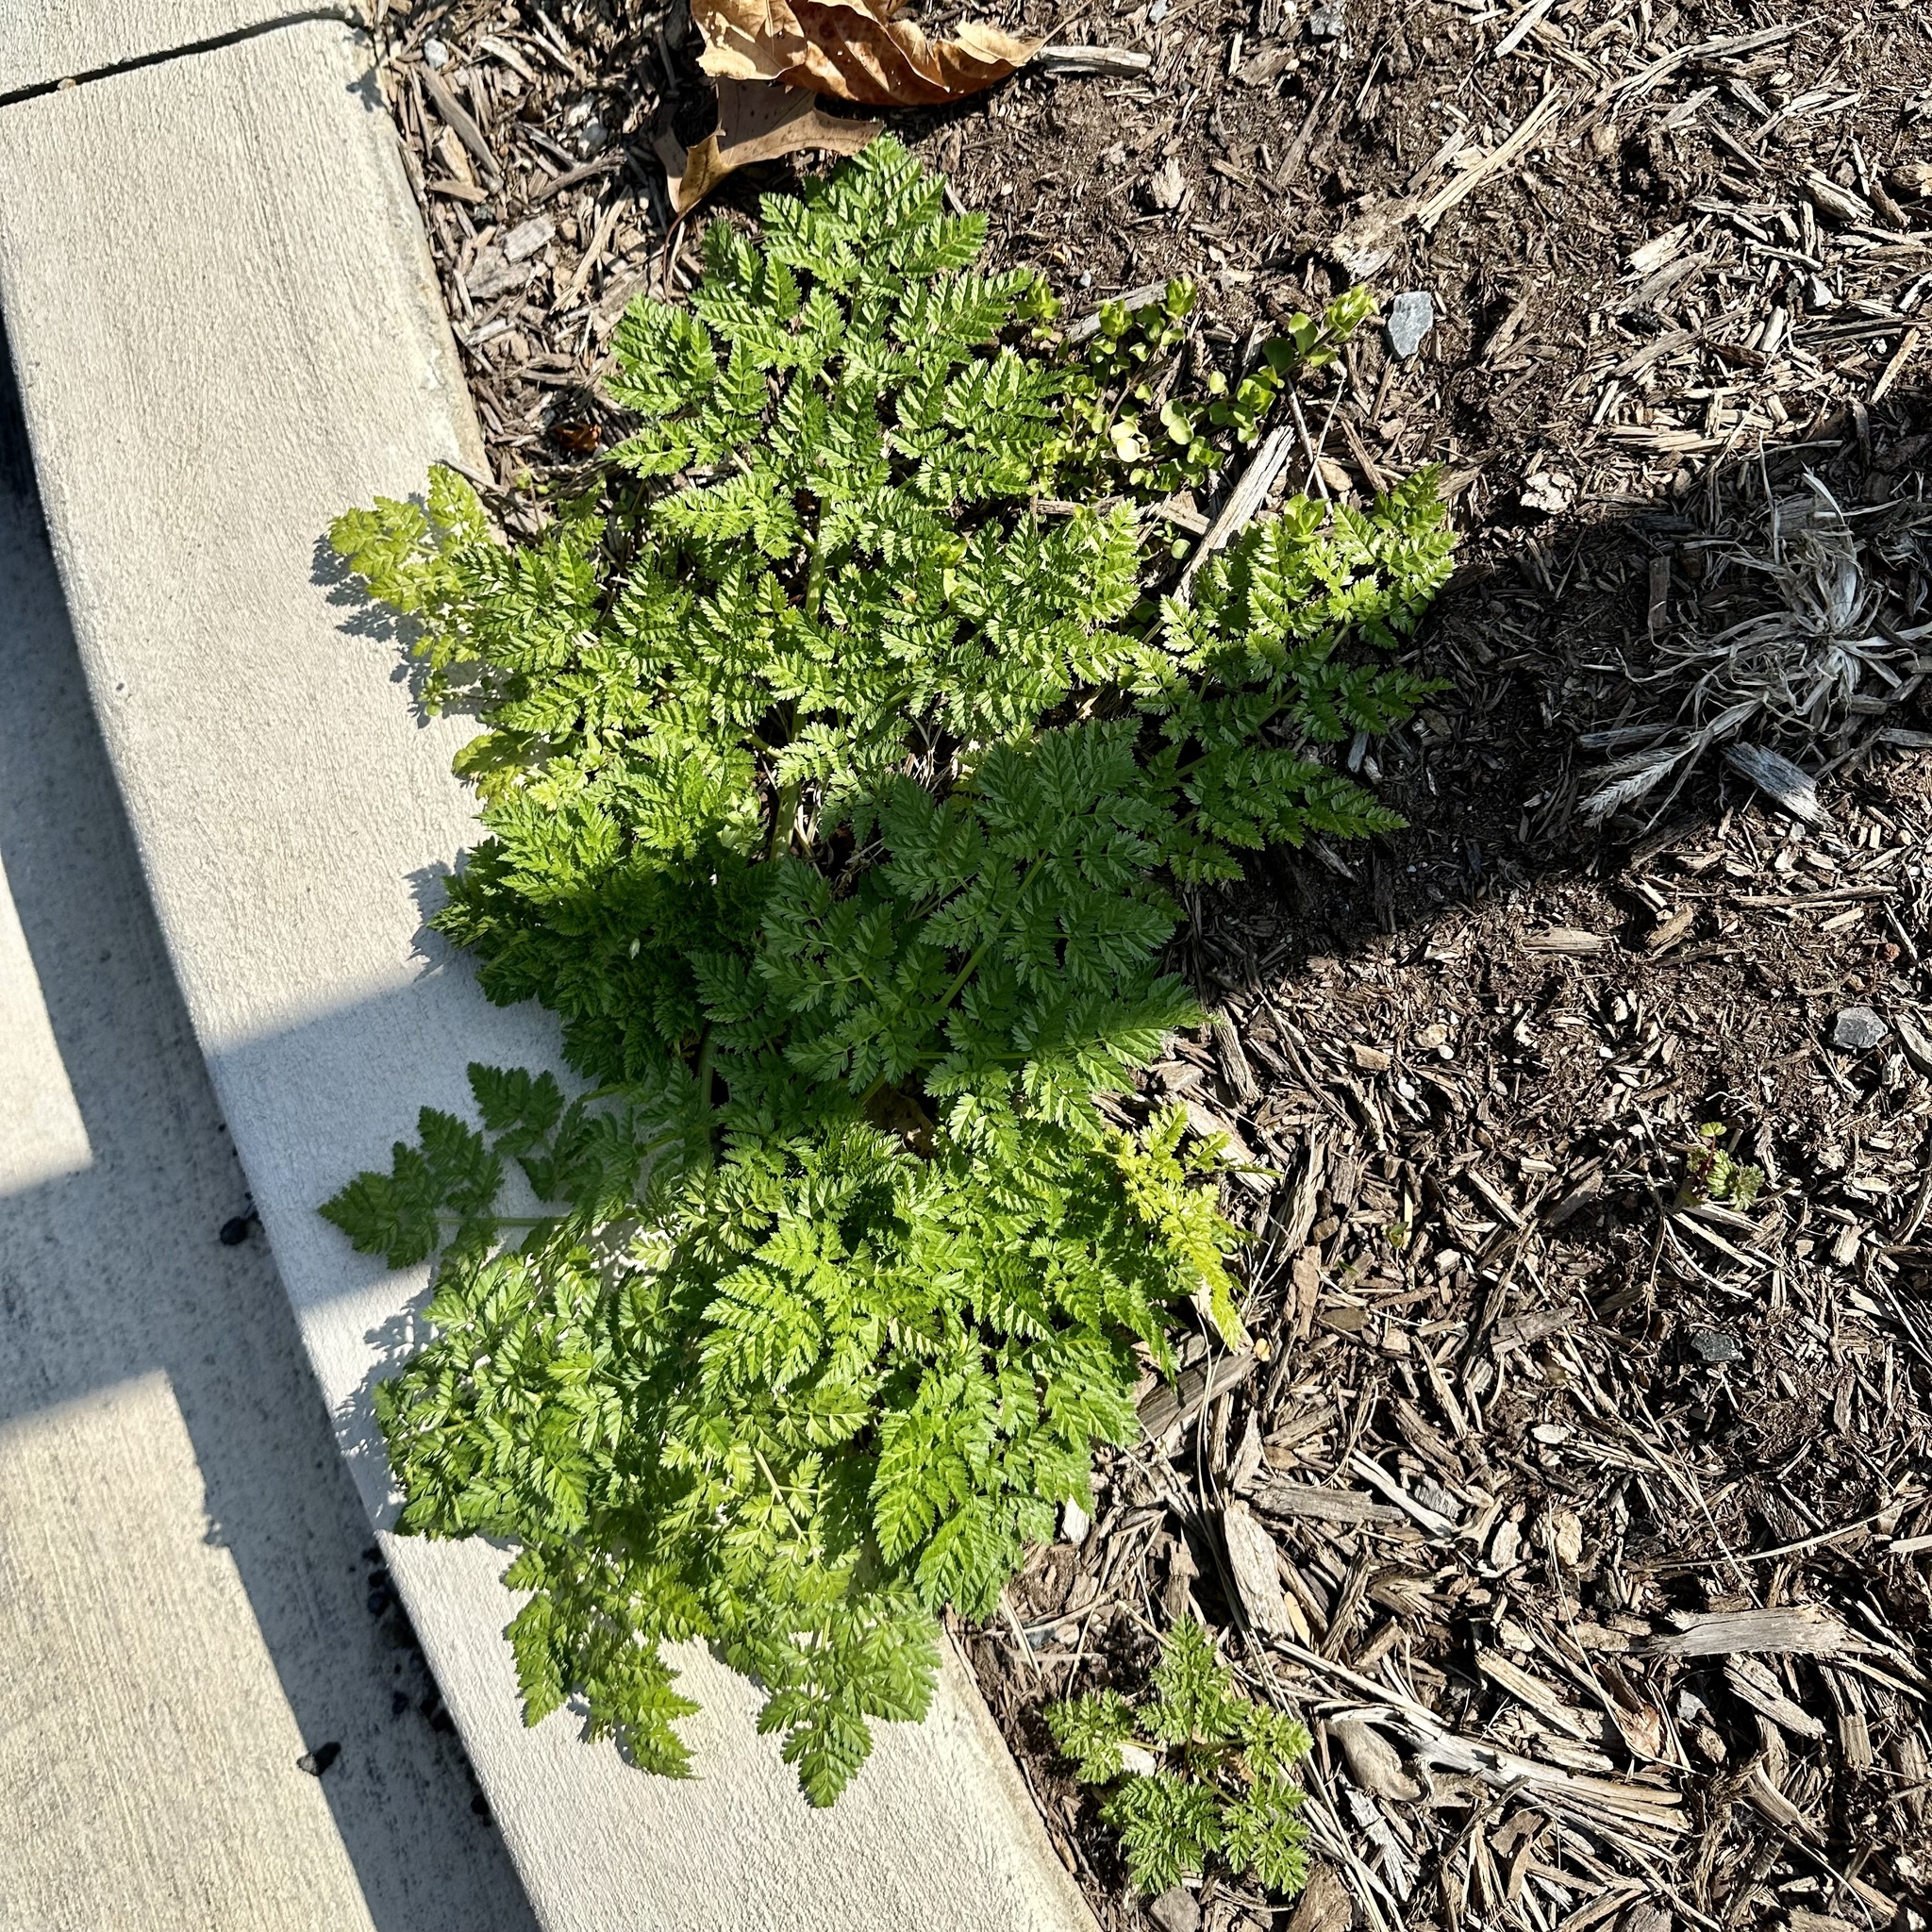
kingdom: Plantae
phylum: Tracheophyta
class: Magnoliopsida
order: Apiales
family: Apiaceae
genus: Conium
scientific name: Conium maculatum
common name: Hemlock
